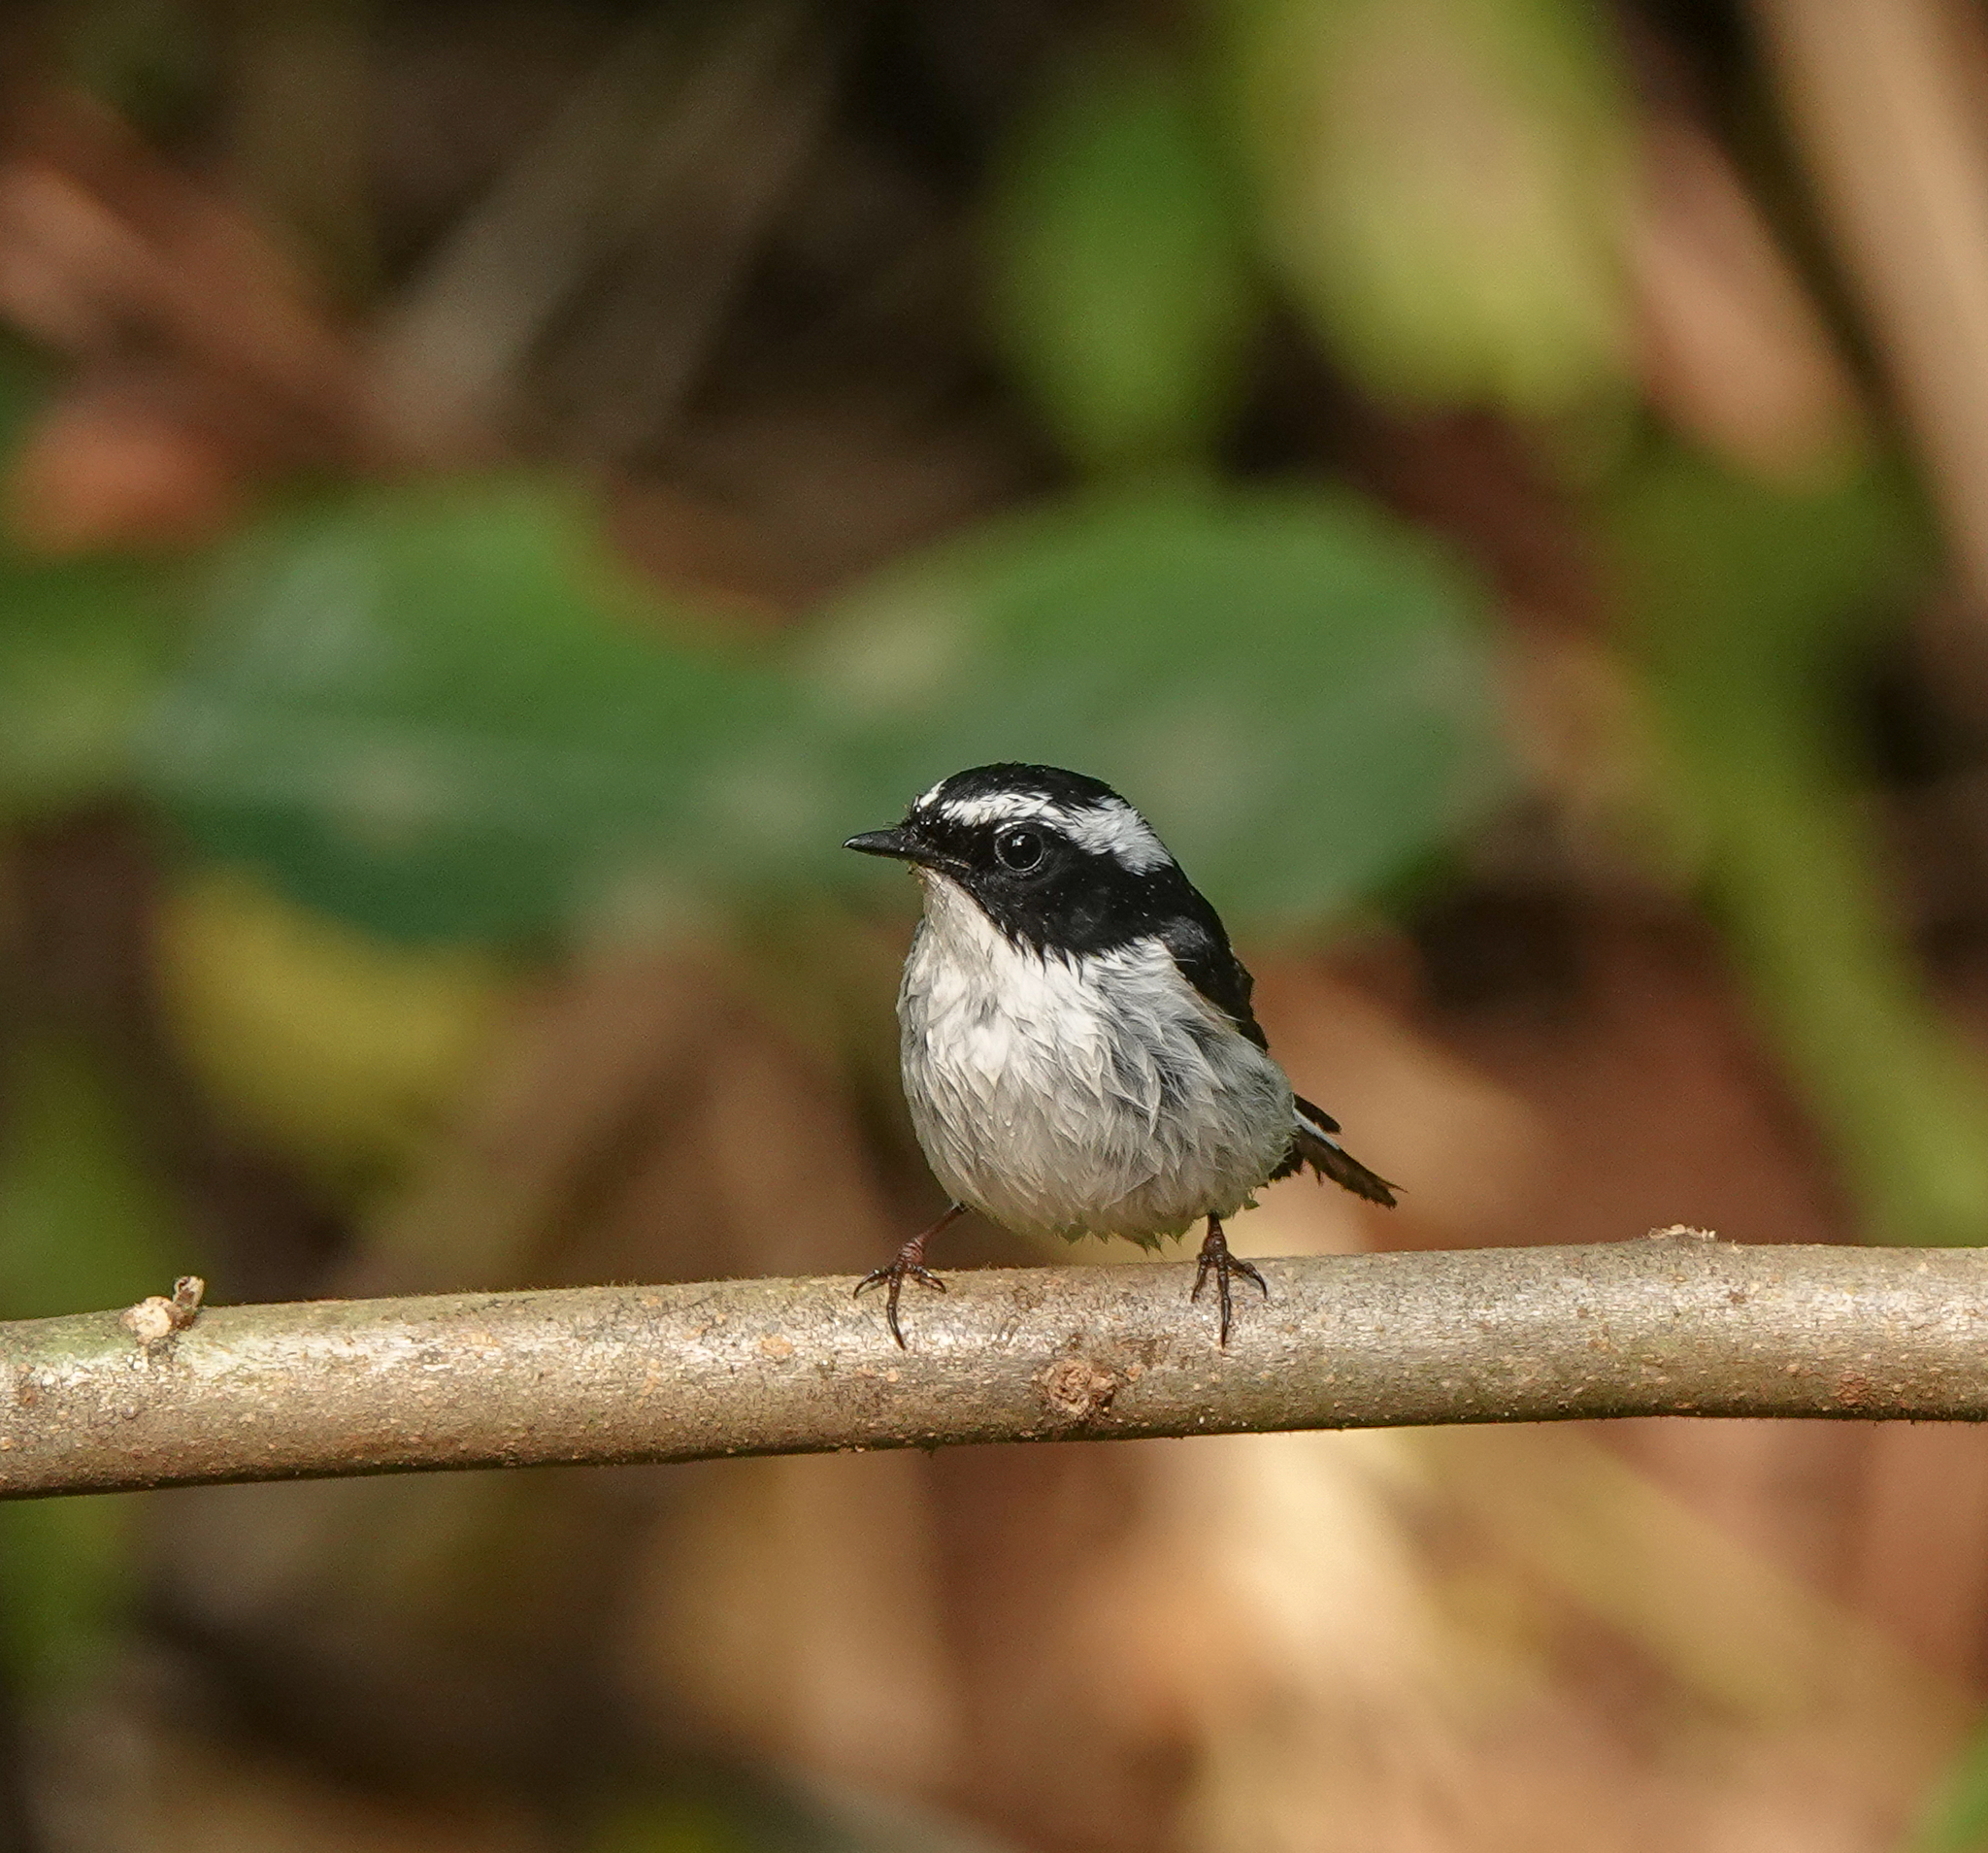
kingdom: Animalia
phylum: Chordata
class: Aves
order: Passeriformes
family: Muscicapidae
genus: Ficedula
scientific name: Ficedula westermanni
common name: Little pied flycatcher
